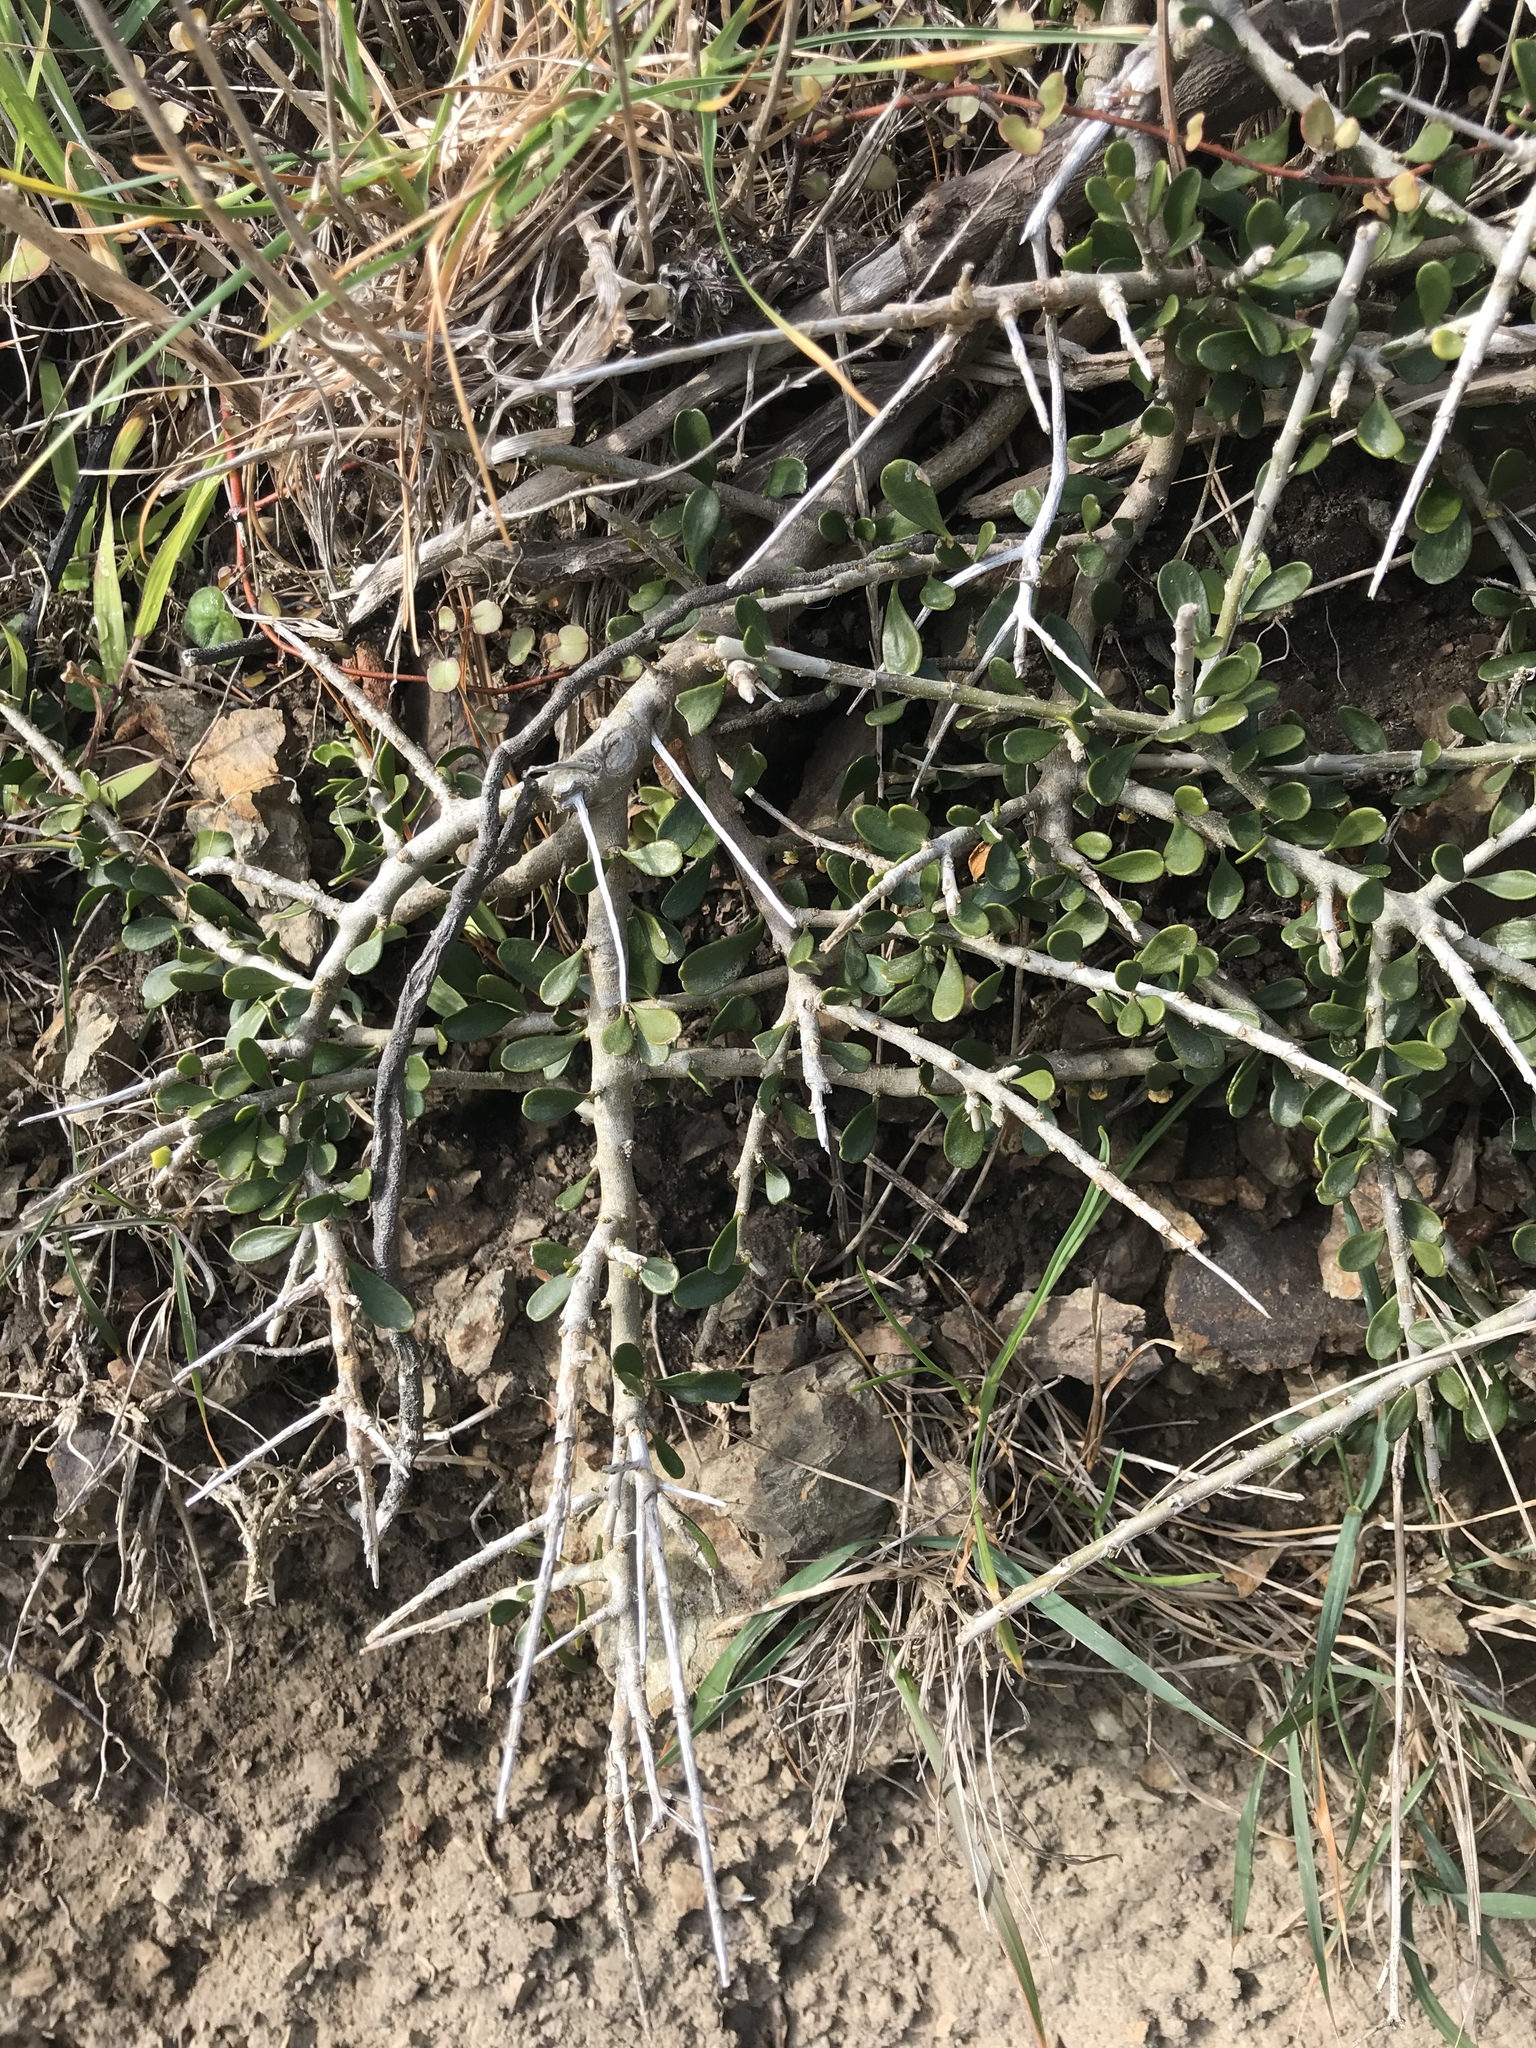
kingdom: Plantae
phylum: Tracheophyta
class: Magnoliopsida
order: Malpighiales
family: Violaceae
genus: Melicytus
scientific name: Melicytus crassifolius
